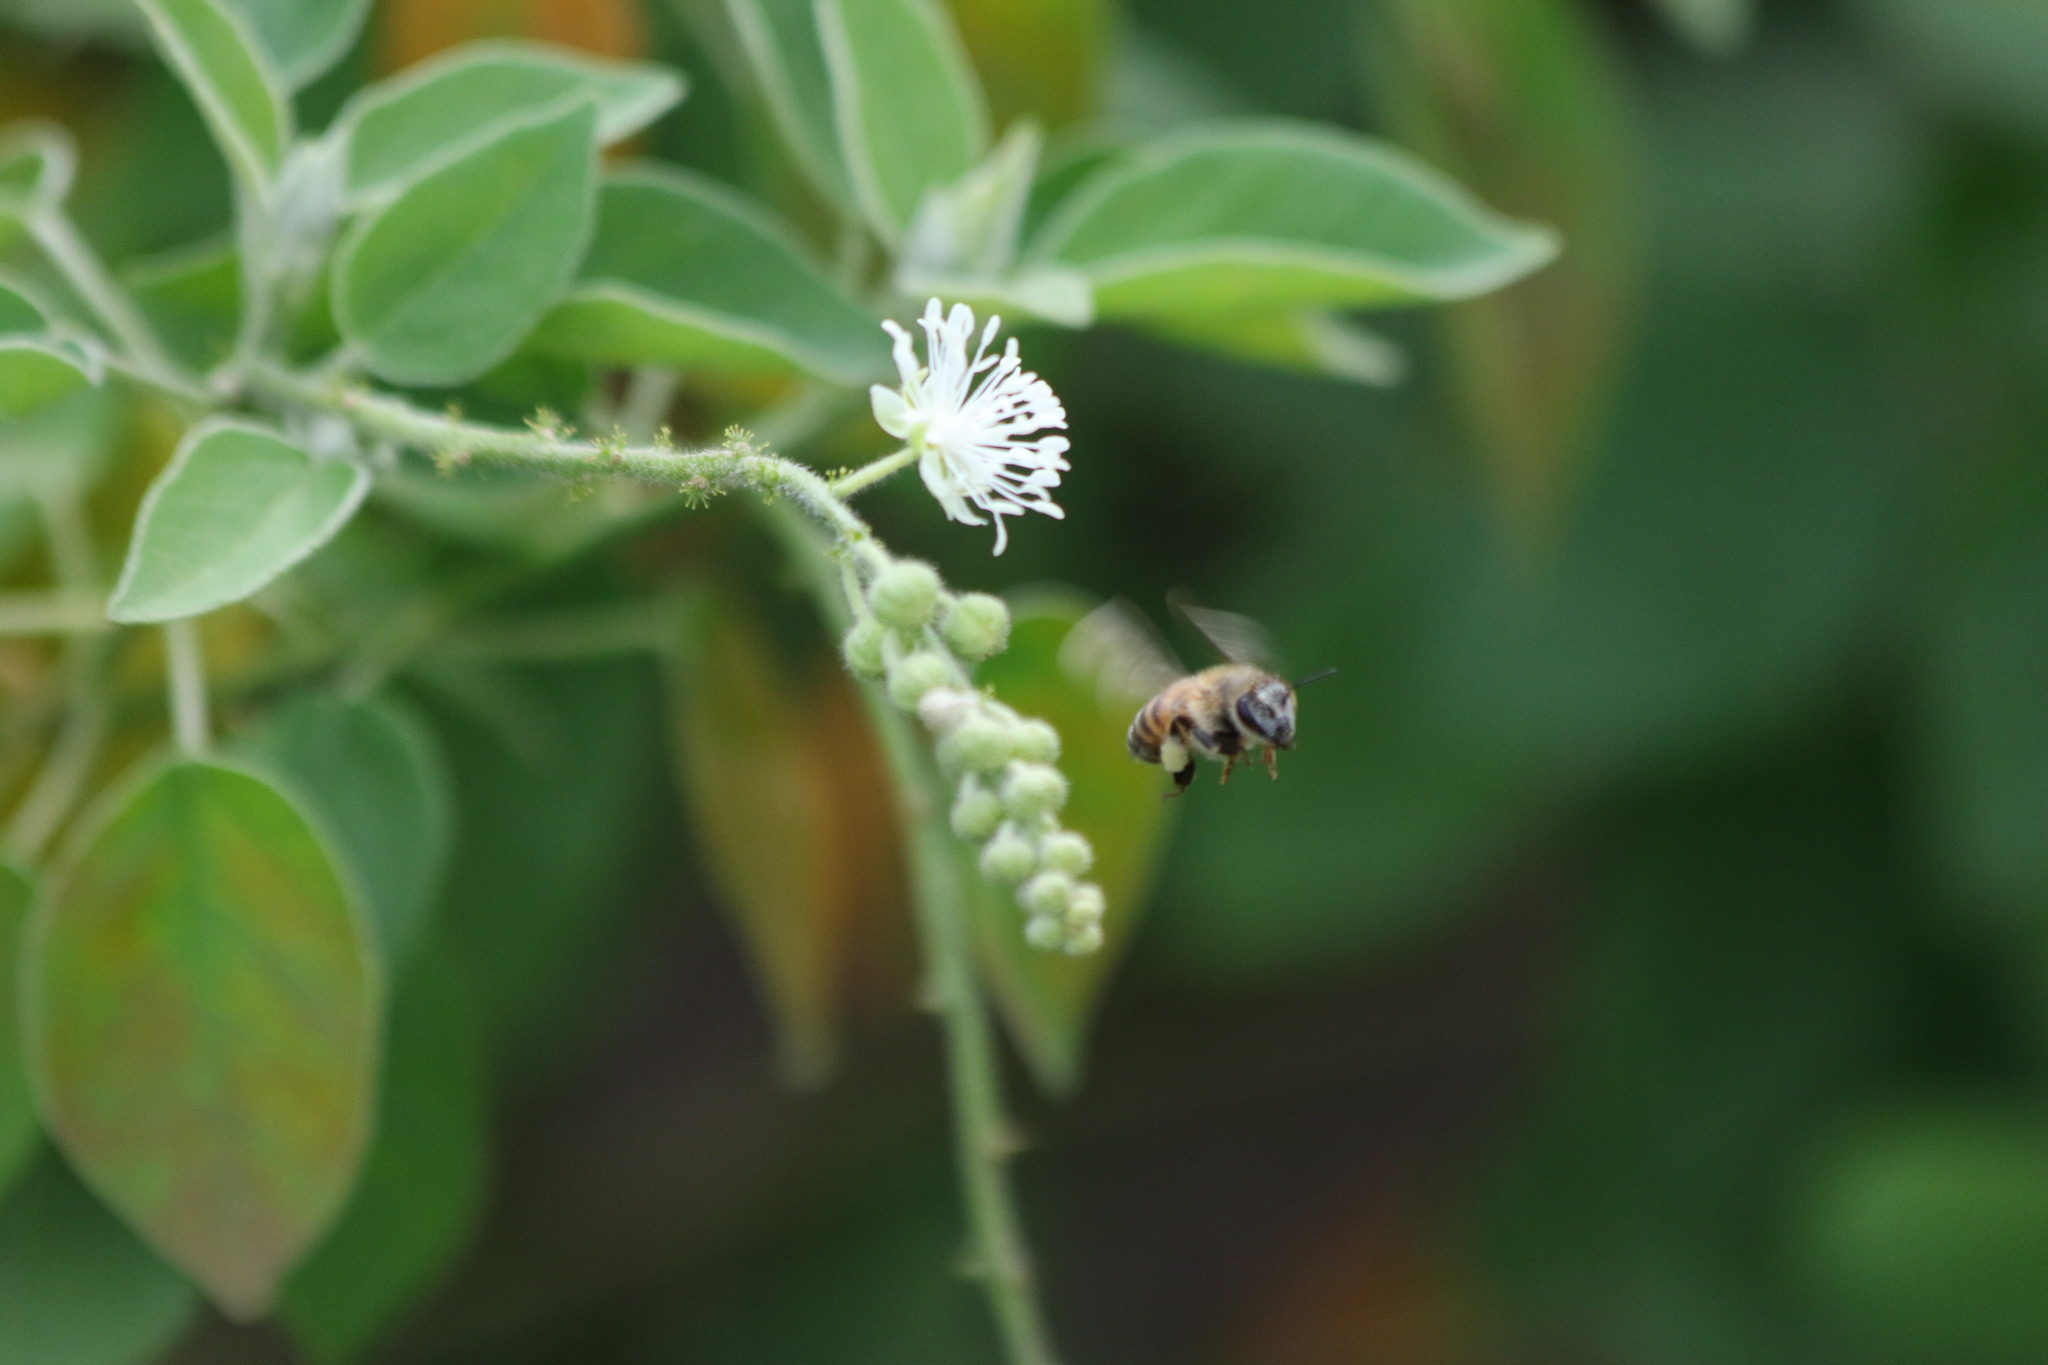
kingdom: Animalia
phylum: Arthropoda
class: Insecta
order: Hymenoptera
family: Apidae
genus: Apis
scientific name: Apis mellifera
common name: Honey bee
